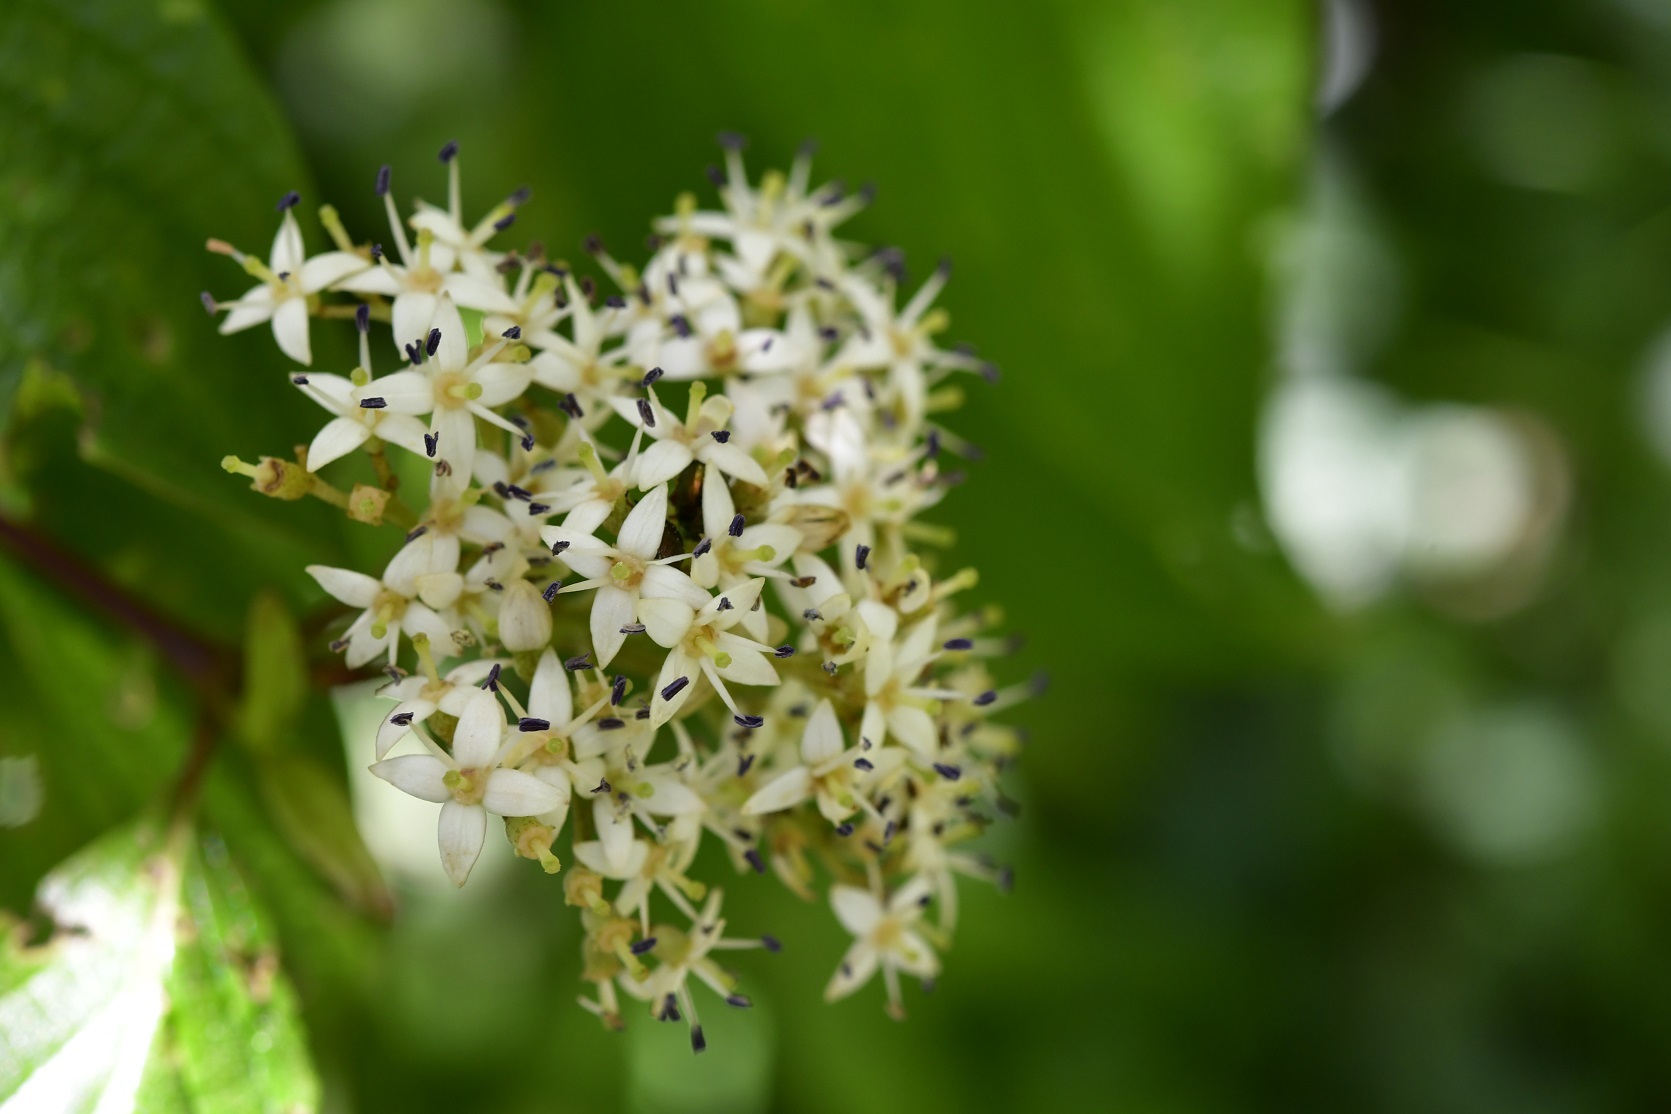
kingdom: Plantae
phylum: Tracheophyta
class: Magnoliopsida
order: Cornales
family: Cornaceae
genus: Cornus
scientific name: Cornus excelsa
